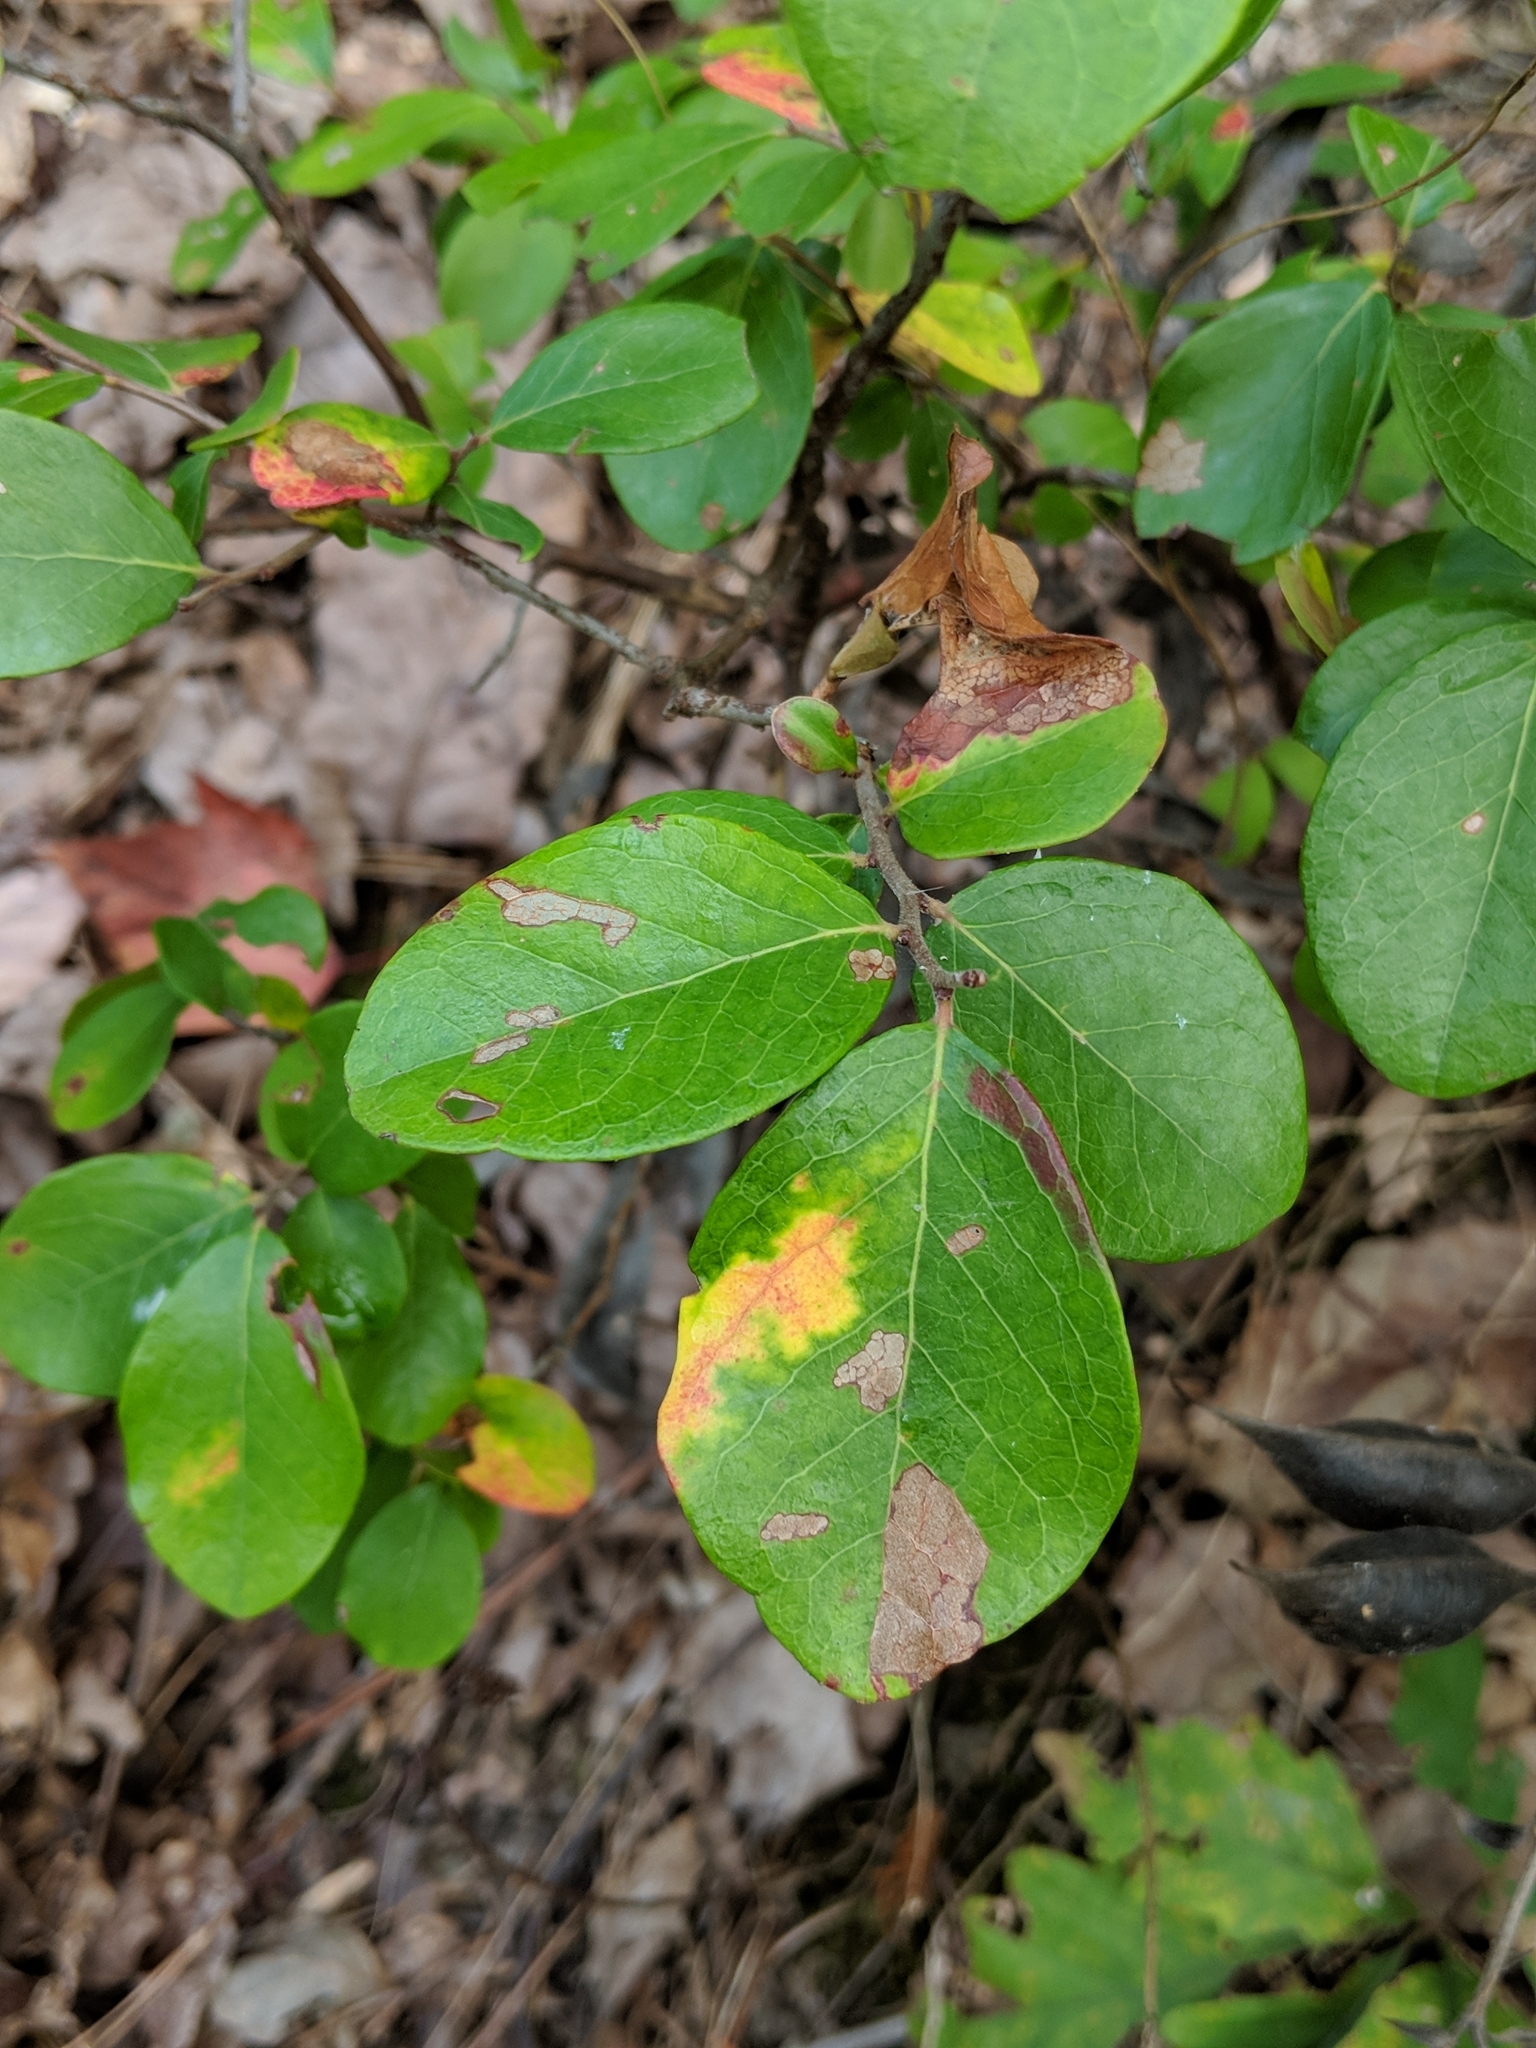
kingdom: Plantae
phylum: Tracheophyta
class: Magnoliopsida
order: Fabales
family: Fabaceae
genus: Baptisia
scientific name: Baptisia bracteata
